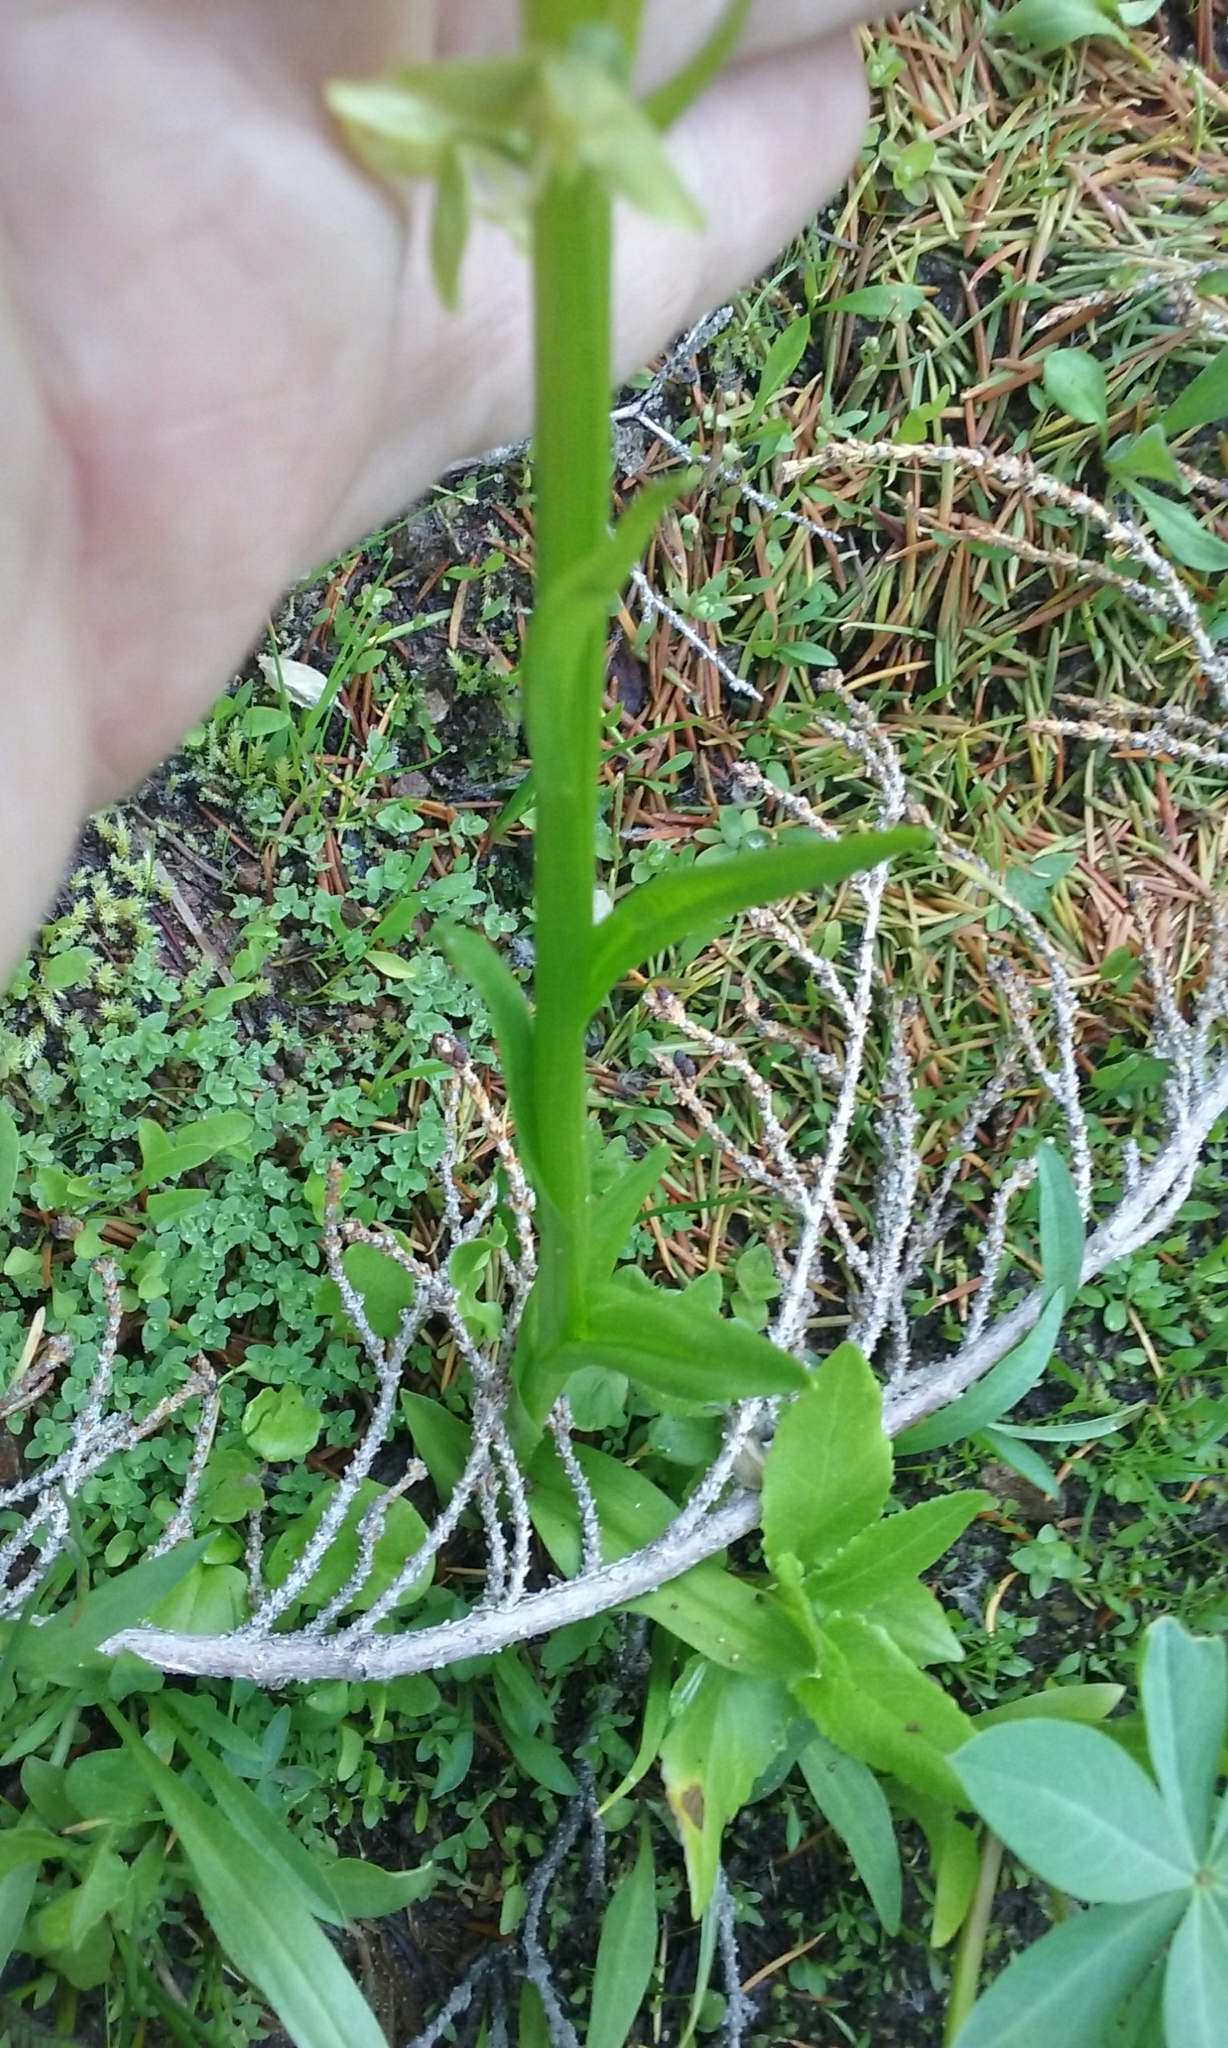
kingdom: Plantae
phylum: Tracheophyta
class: Liliopsida
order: Asparagales
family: Orchidaceae
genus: Platanthera
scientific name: Platanthera sparsiflora
